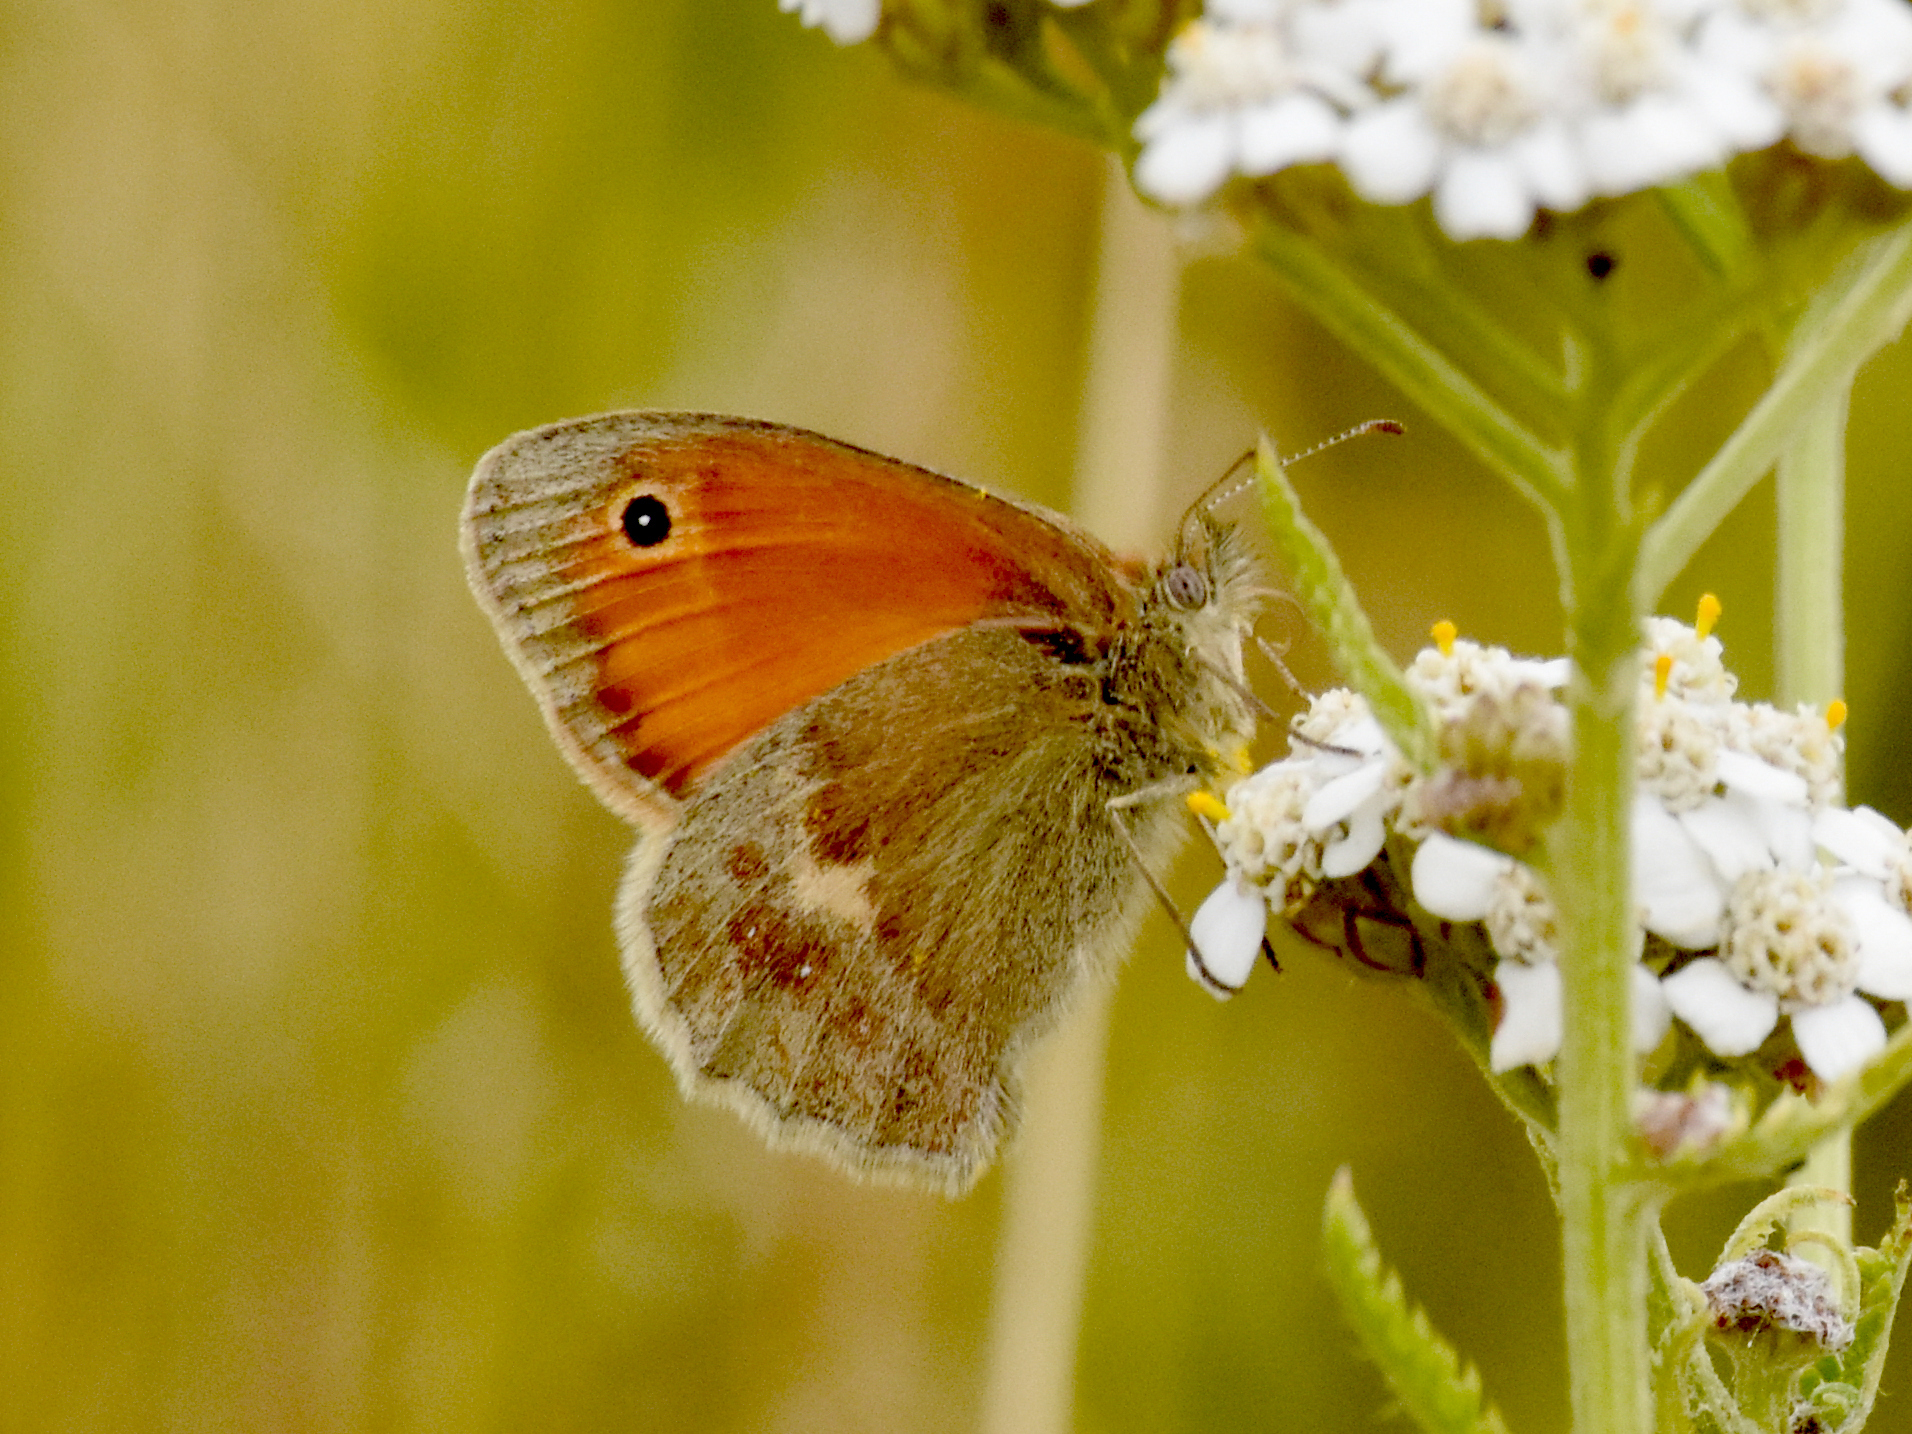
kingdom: Animalia
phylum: Arthropoda
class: Insecta
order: Lepidoptera
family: Nymphalidae
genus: Coenonympha
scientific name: Coenonympha pamphilus
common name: Small heath
